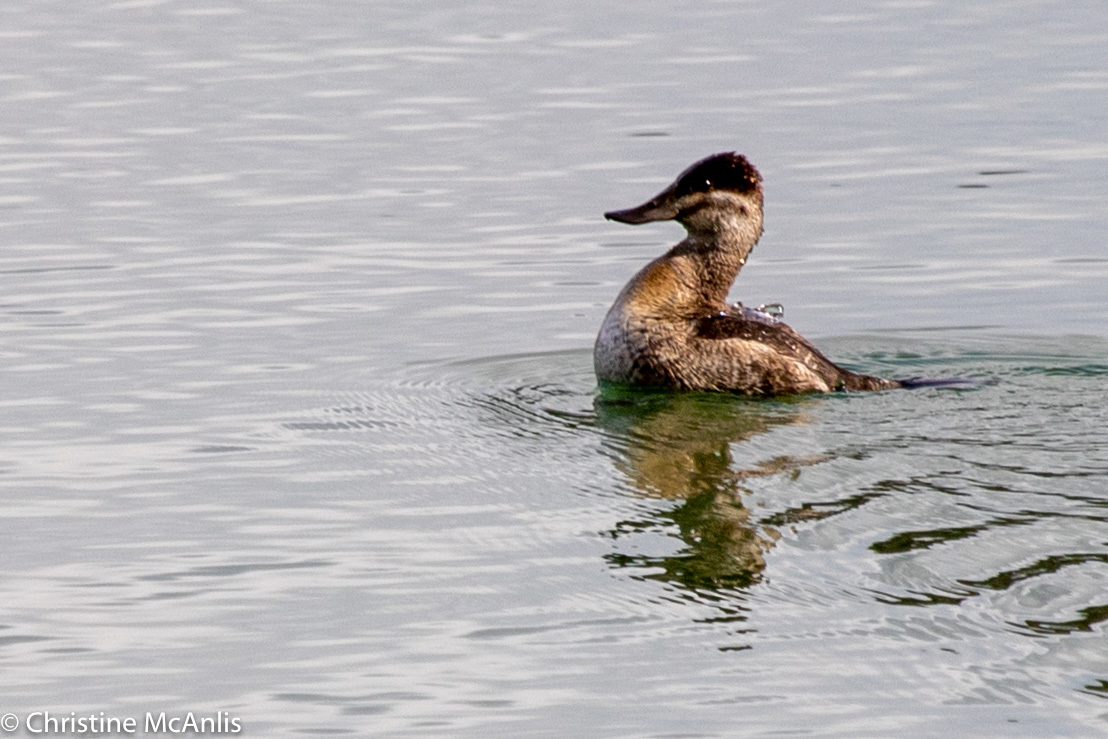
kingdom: Animalia
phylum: Chordata
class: Aves
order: Anseriformes
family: Anatidae
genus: Oxyura
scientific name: Oxyura jamaicensis
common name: Ruddy duck
